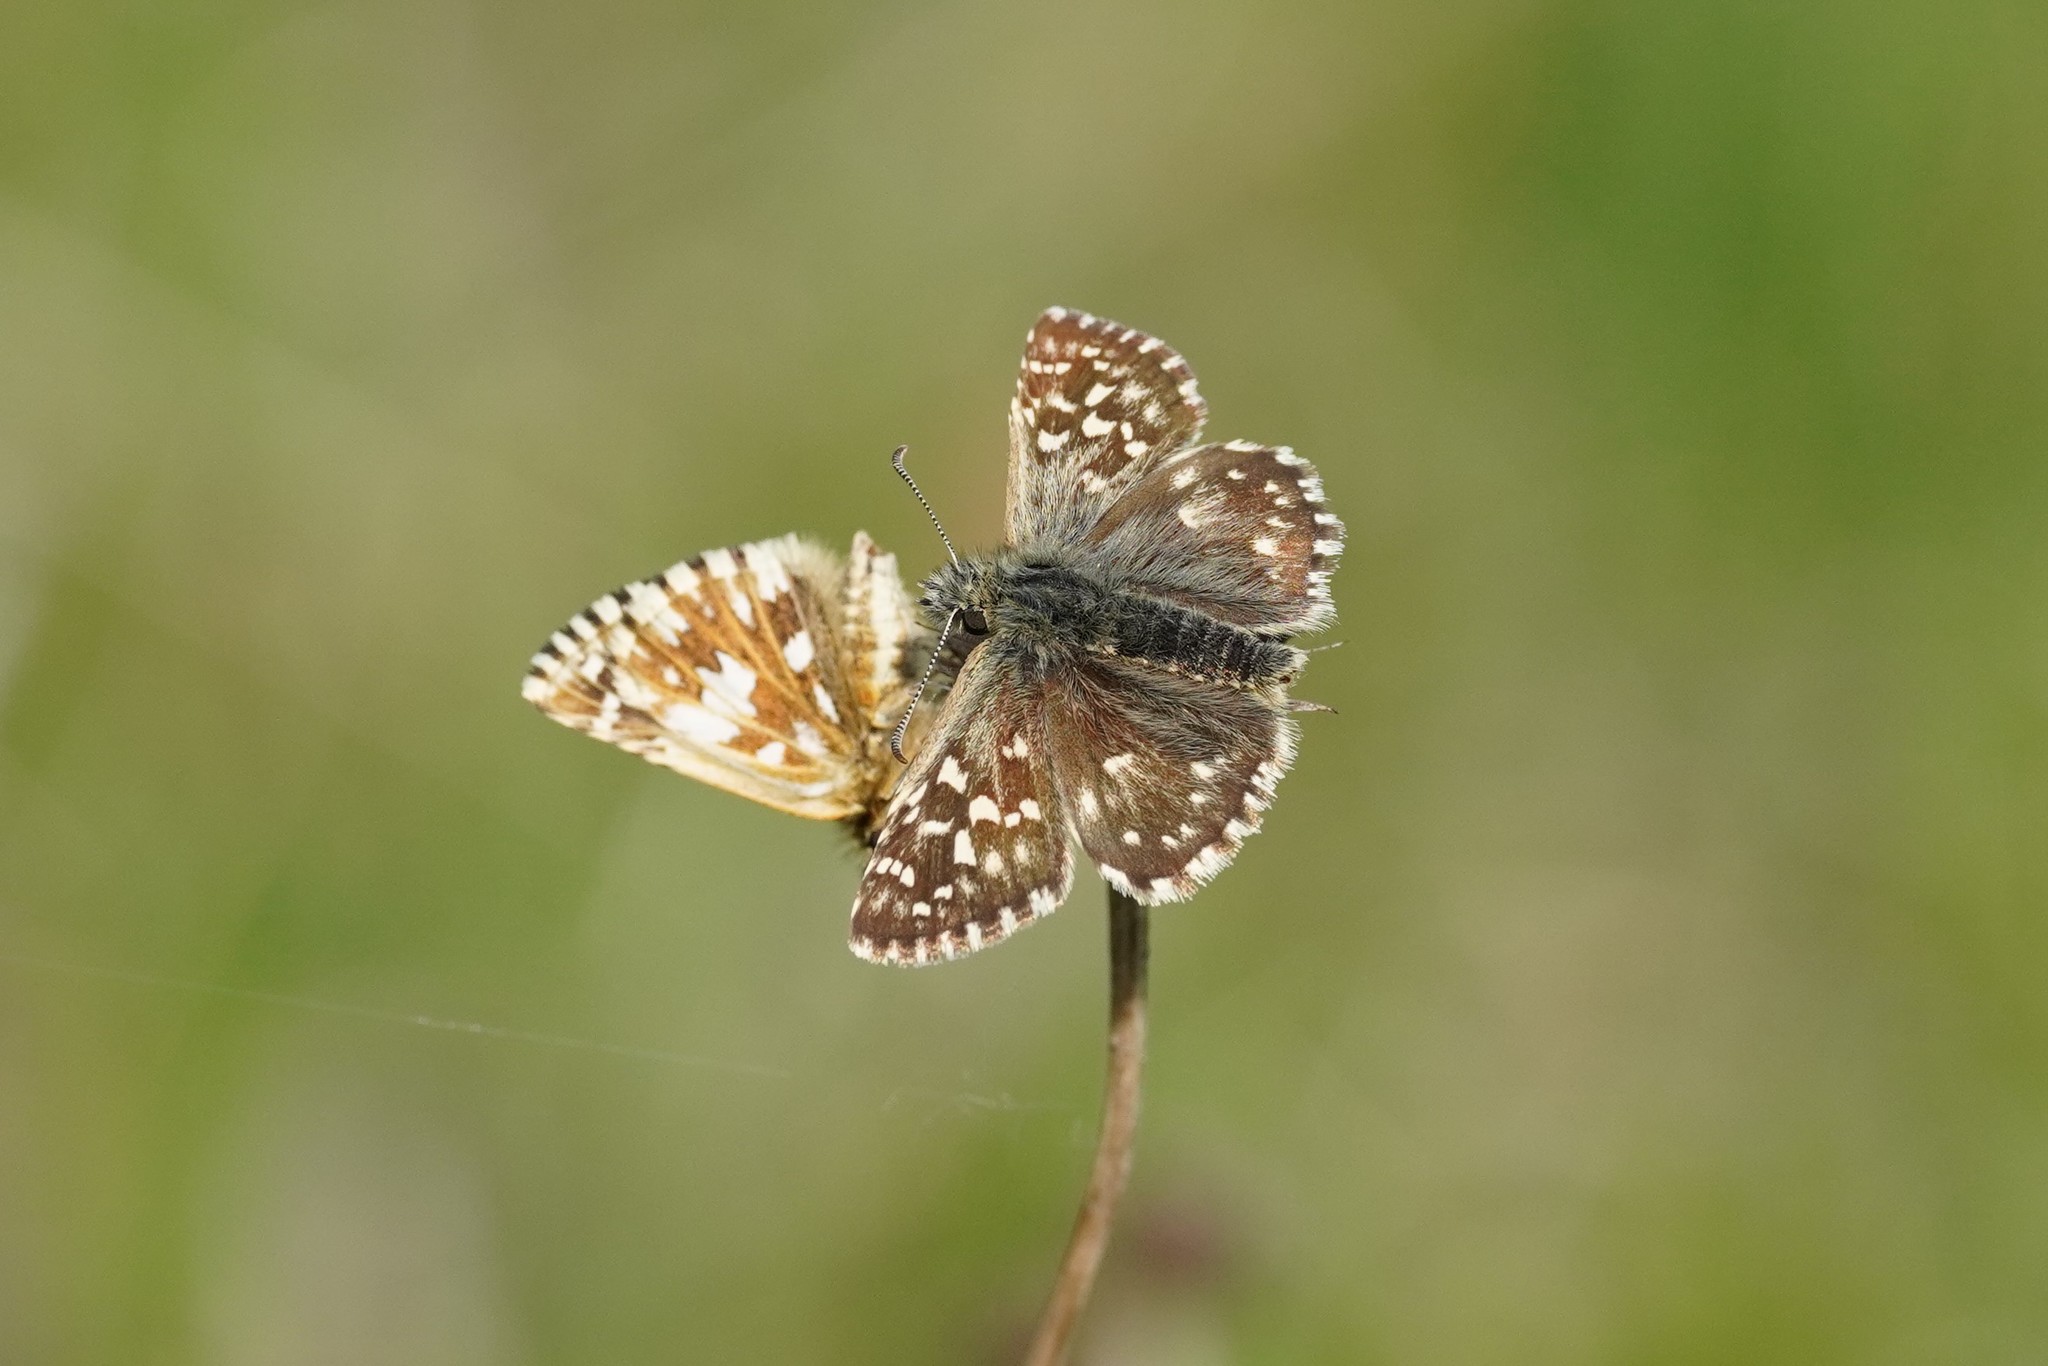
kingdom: Animalia
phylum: Arthropoda
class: Insecta
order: Lepidoptera
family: Hesperiidae
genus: Pyrgus
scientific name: Pyrgus malvae
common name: Grizzled skipper
